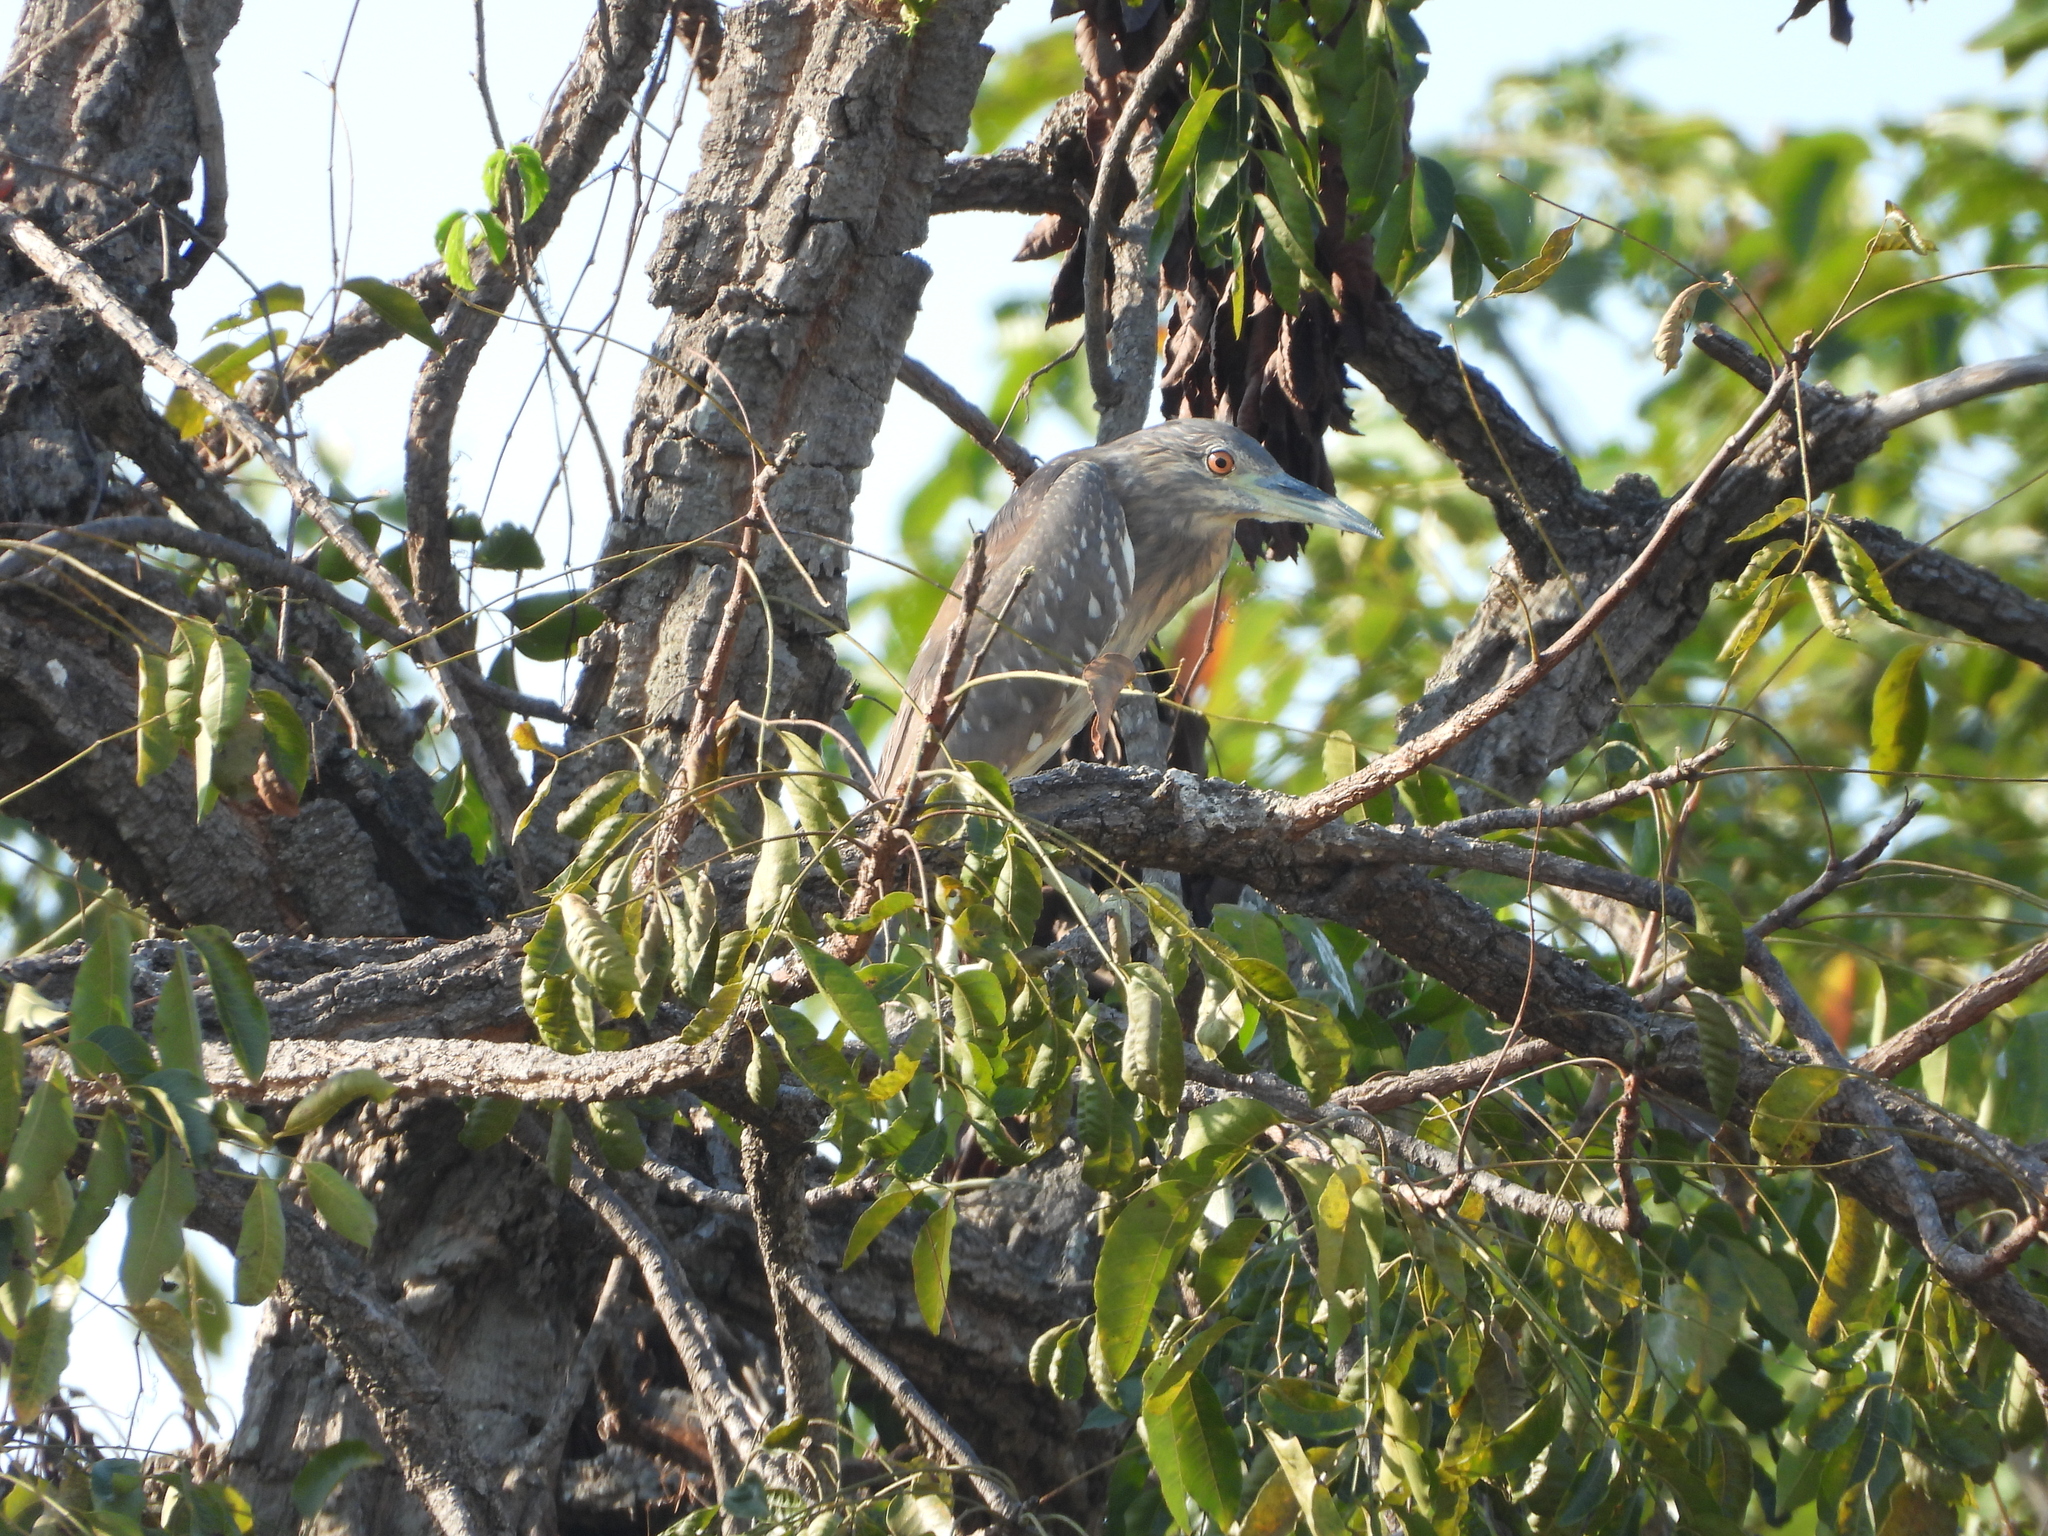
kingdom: Animalia
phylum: Chordata
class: Aves
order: Pelecaniformes
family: Ardeidae
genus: Nycticorax
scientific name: Nycticorax nycticorax
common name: Black-crowned night heron
